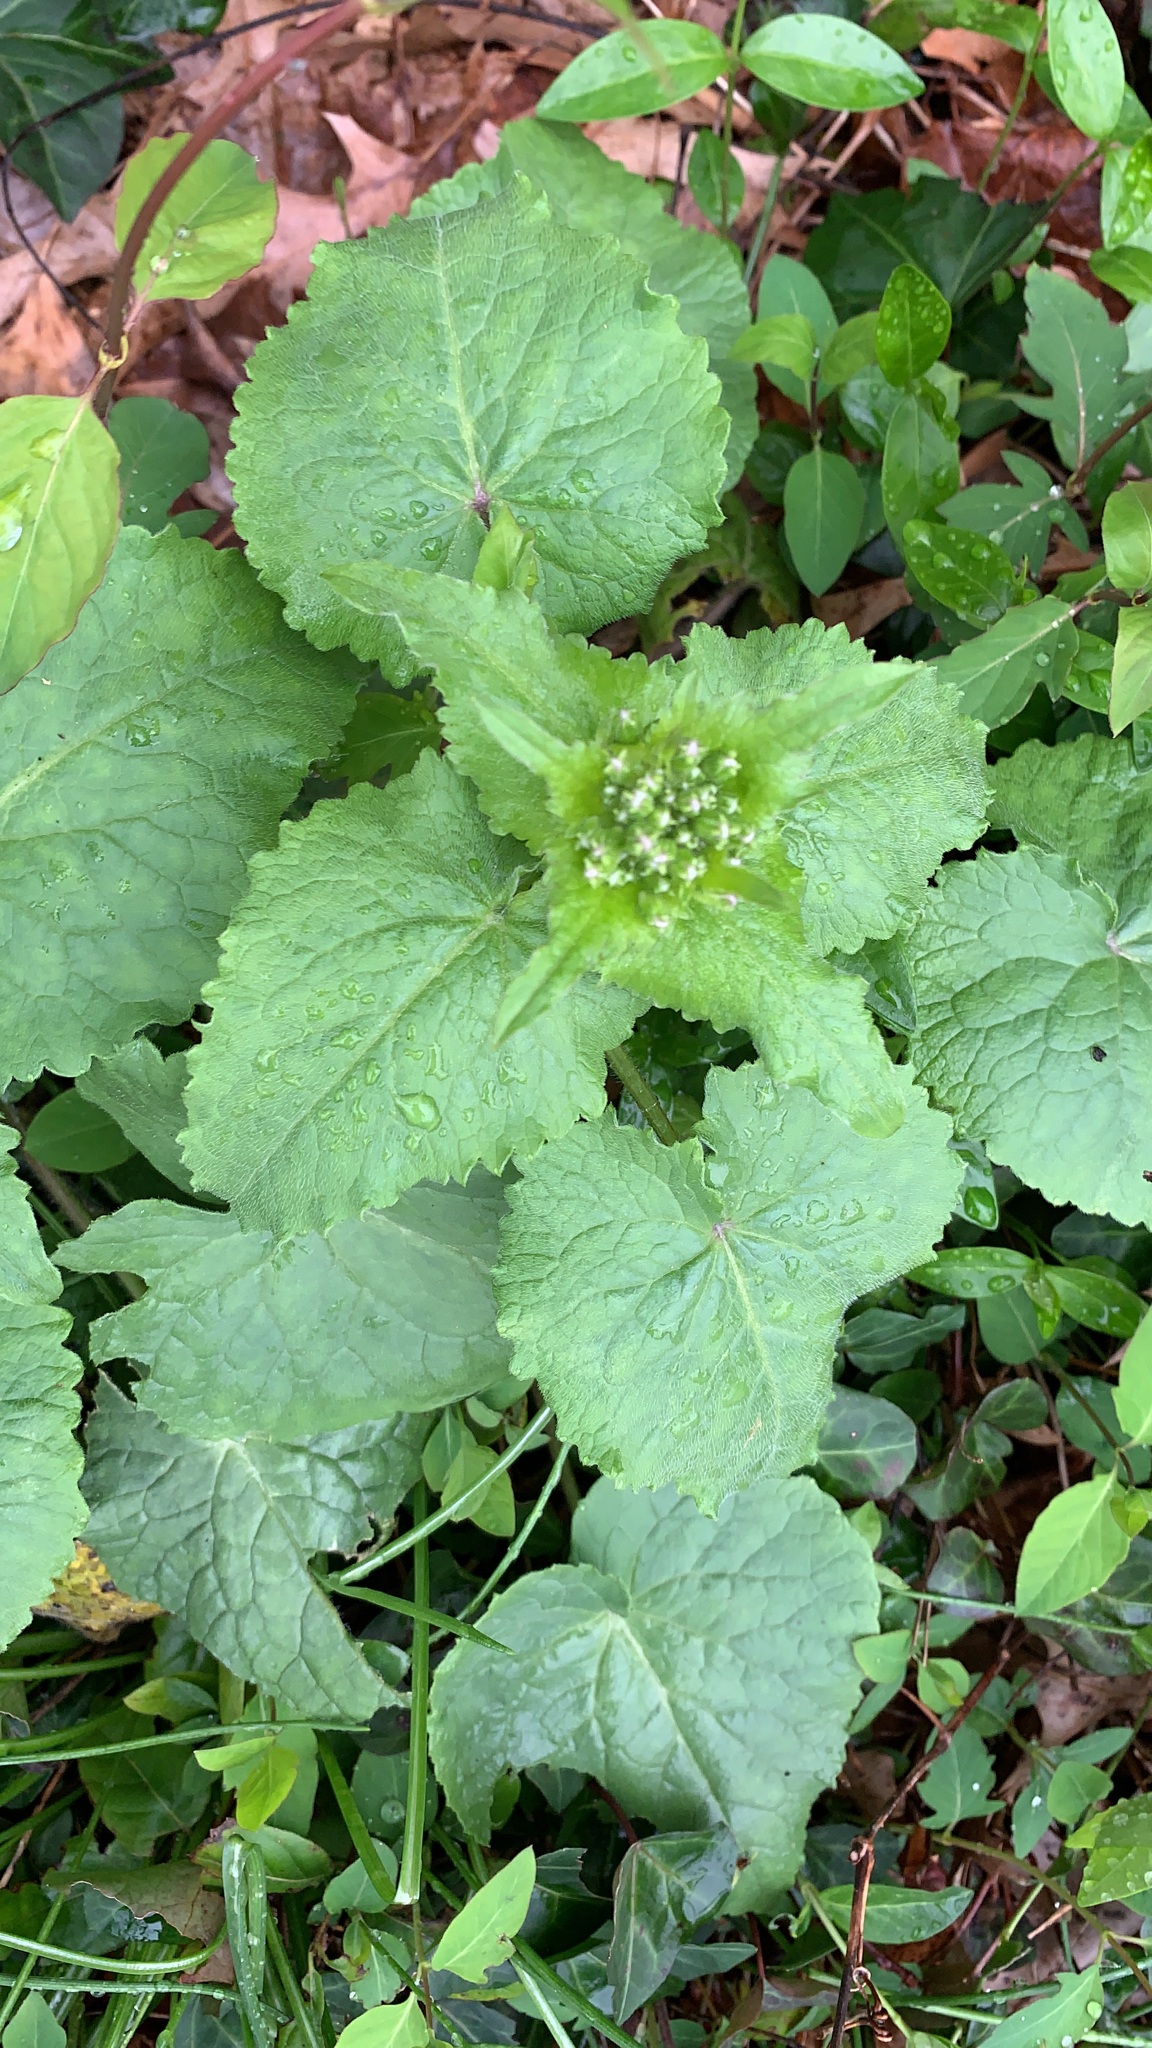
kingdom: Plantae
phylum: Tracheophyta
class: Magnoliopsida
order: Brassicales
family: Brassicaceae
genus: Alliaria
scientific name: Alliaria petiolata
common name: Garlic mustard
